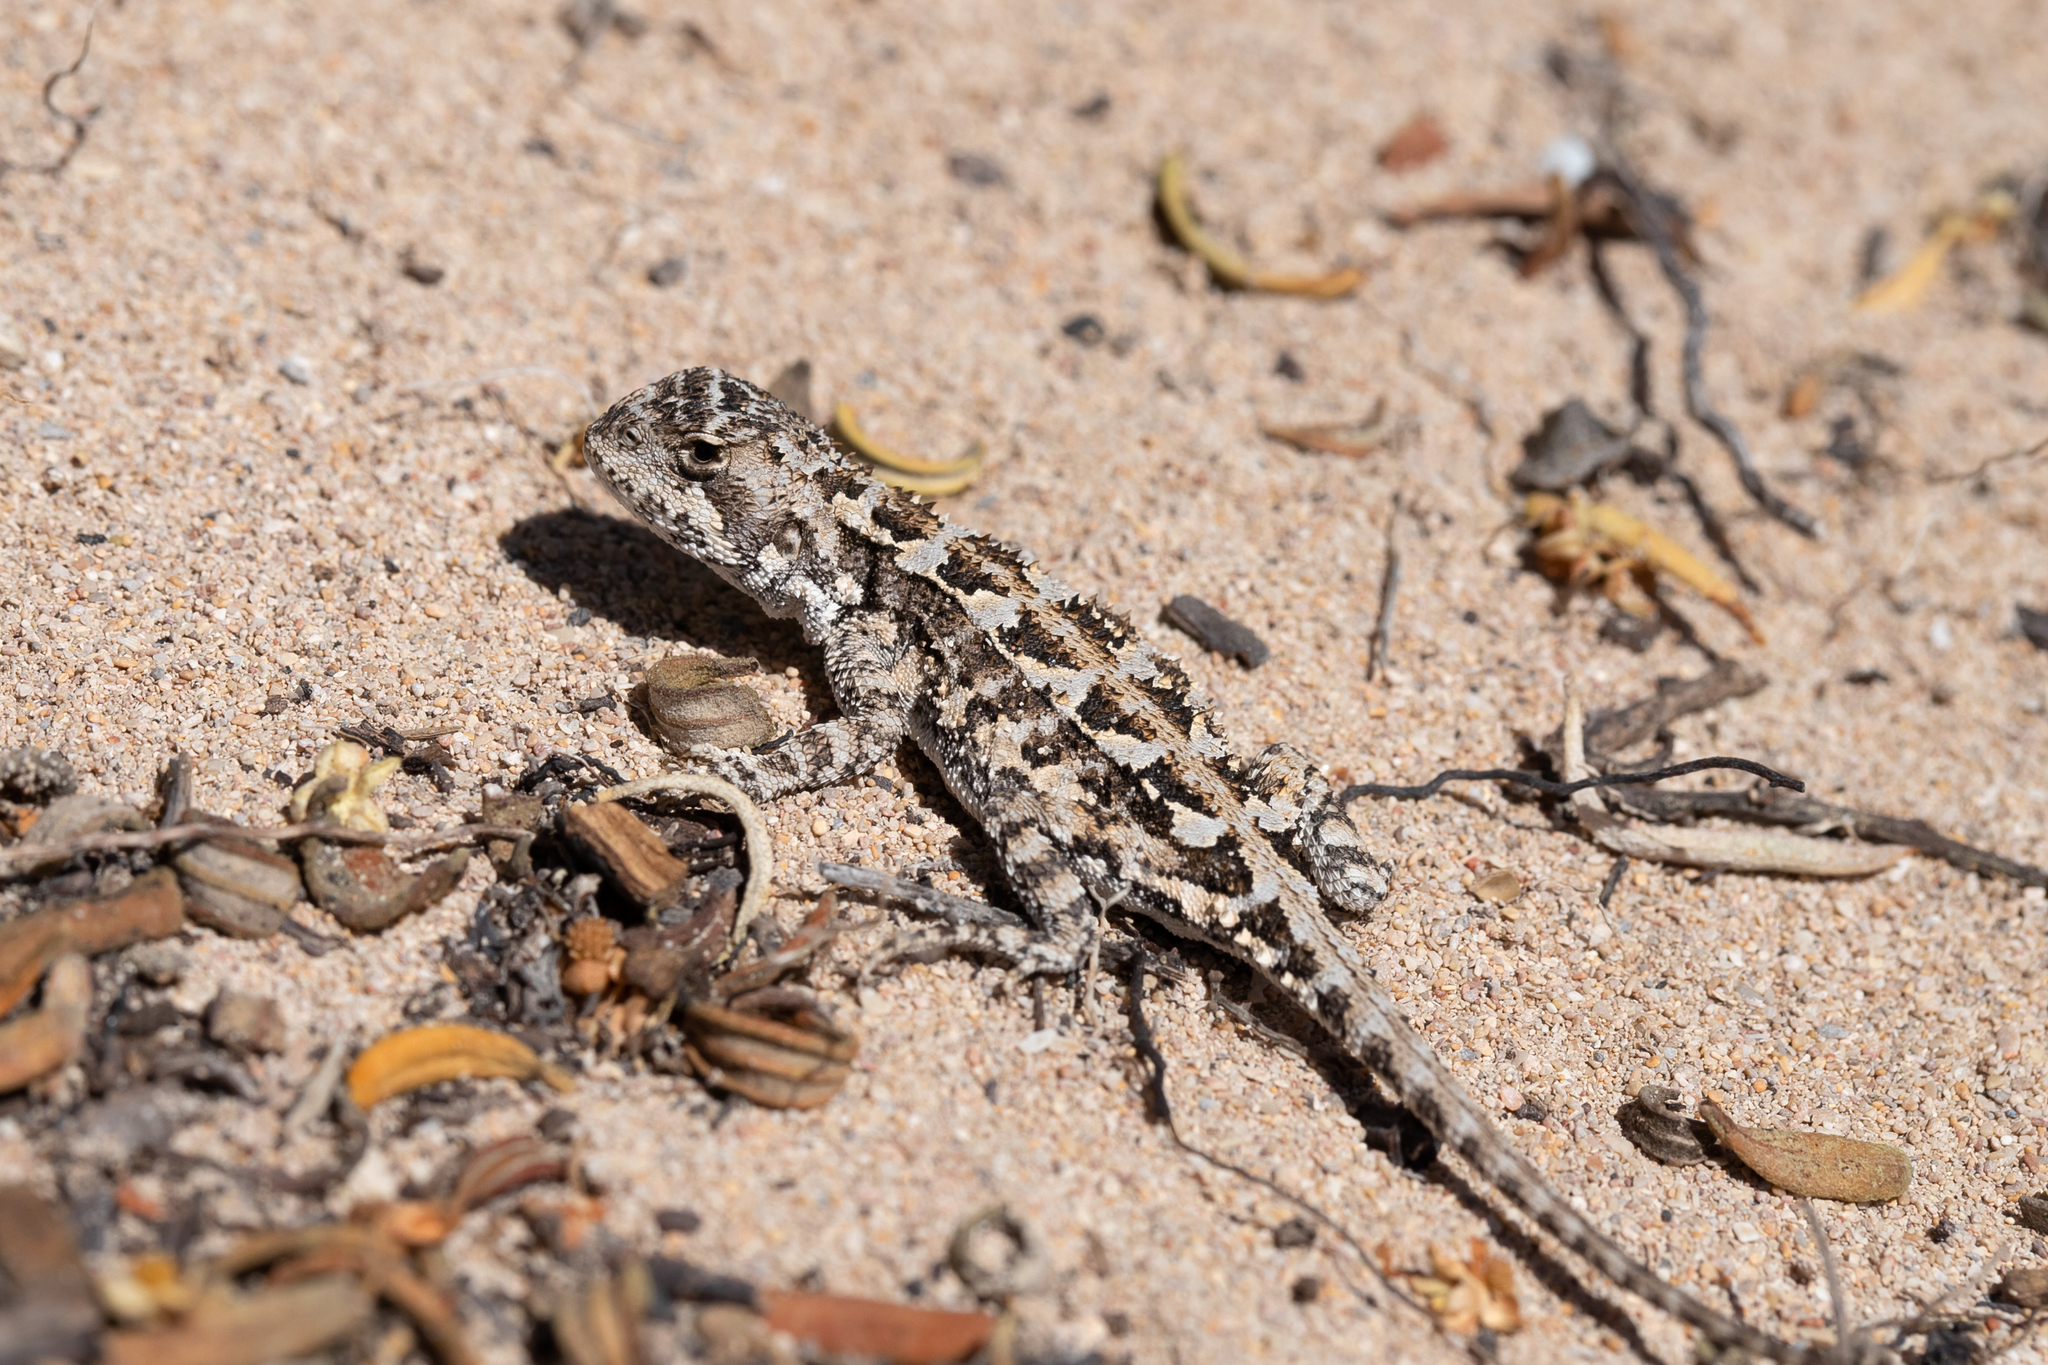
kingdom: Animalia
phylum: Chordata
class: Squamata
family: Agamidae
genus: Ctenophorus
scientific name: Ctenophorus chapmani
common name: Chapman's dragon
